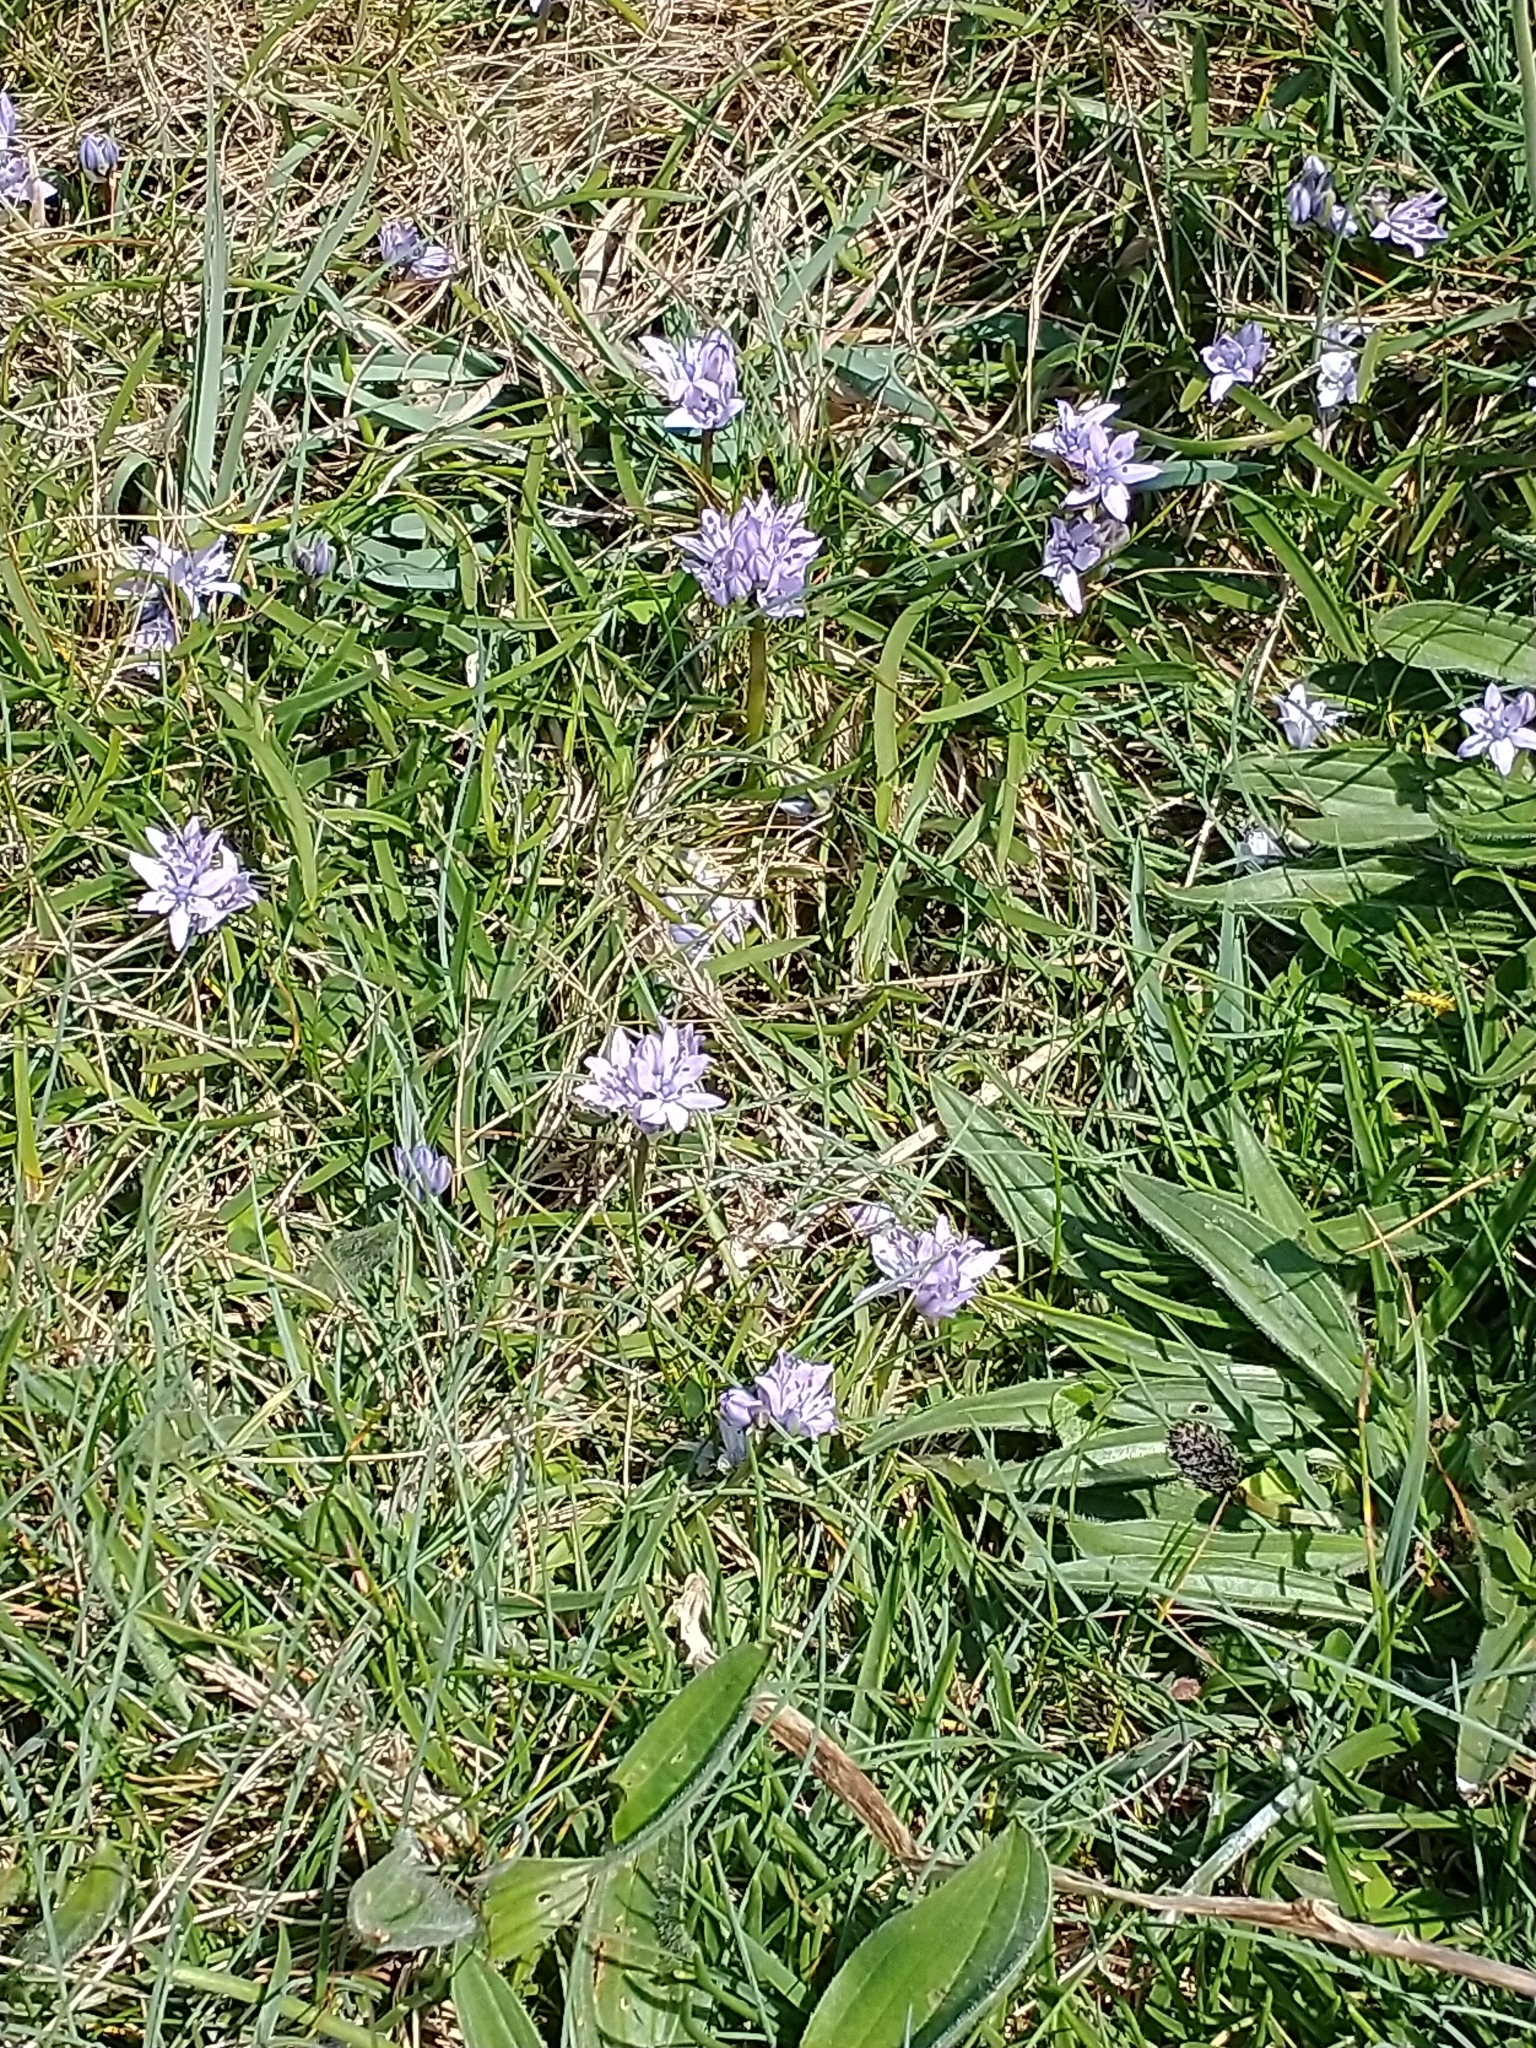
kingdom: Plantae
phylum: Tracheophyta
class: Liliopsida
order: Asparagales
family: Asparagaceae
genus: Scilla
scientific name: Scilla verna
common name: Spring squill
